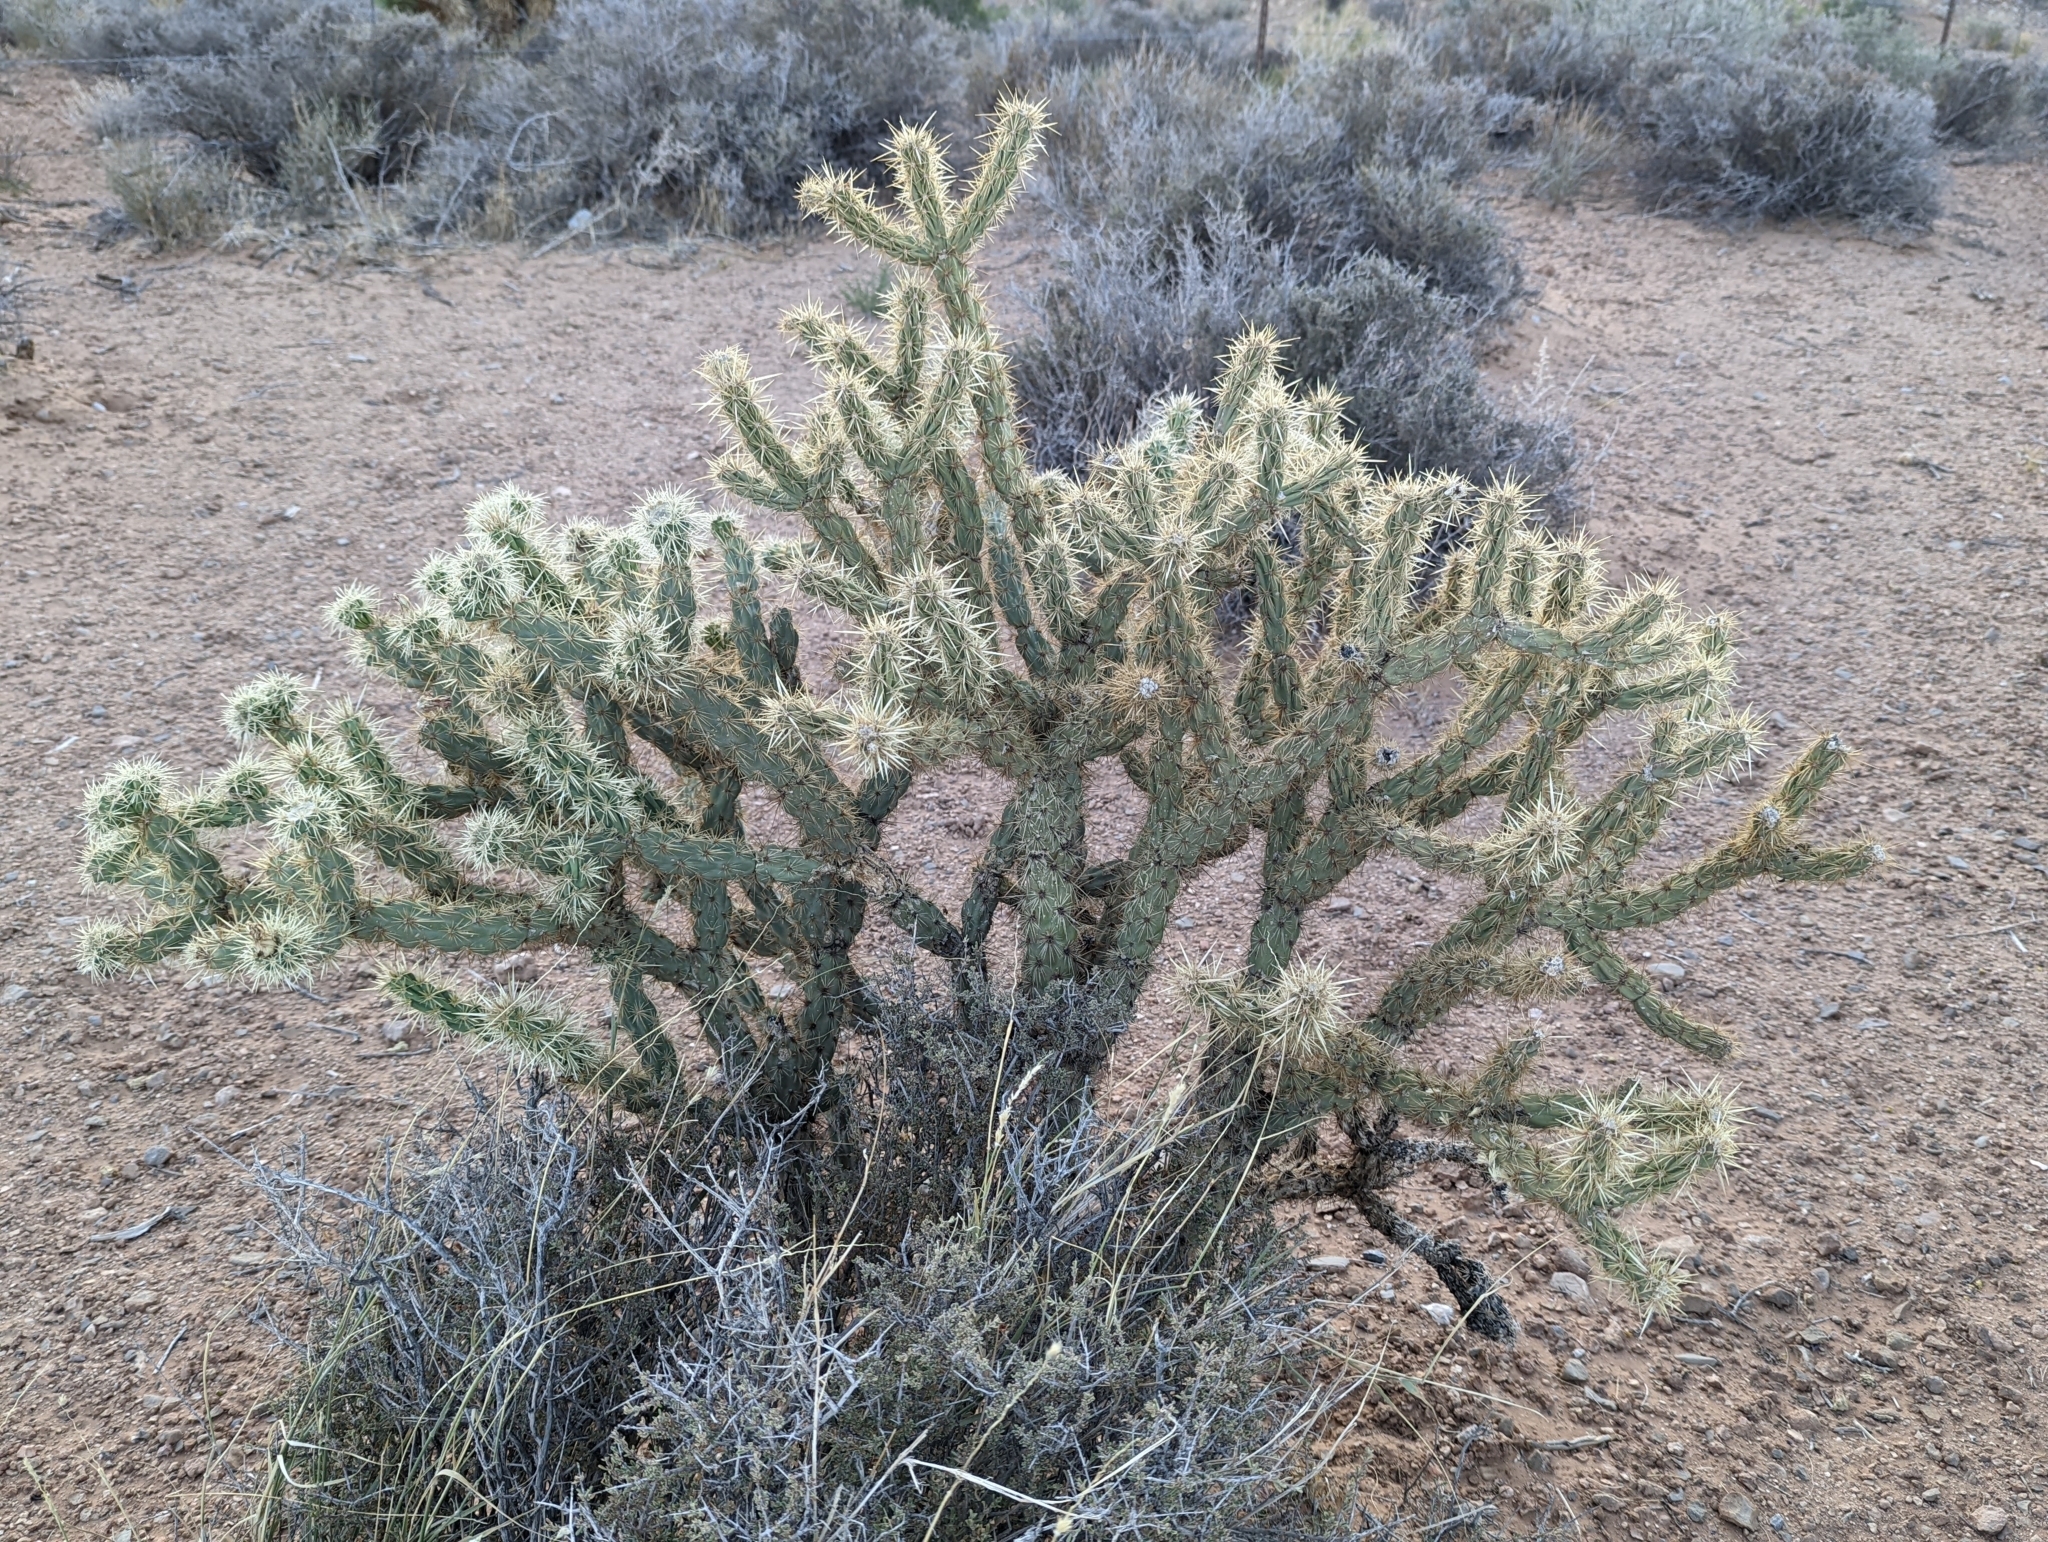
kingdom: Plantae
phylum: Tracheophyta
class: Magnoliopsida
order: Caryophyllales
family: Cactaceae
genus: Cylindropuntia
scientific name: Cylindropuntia acanthocarpa
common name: Buckhorn cholla
